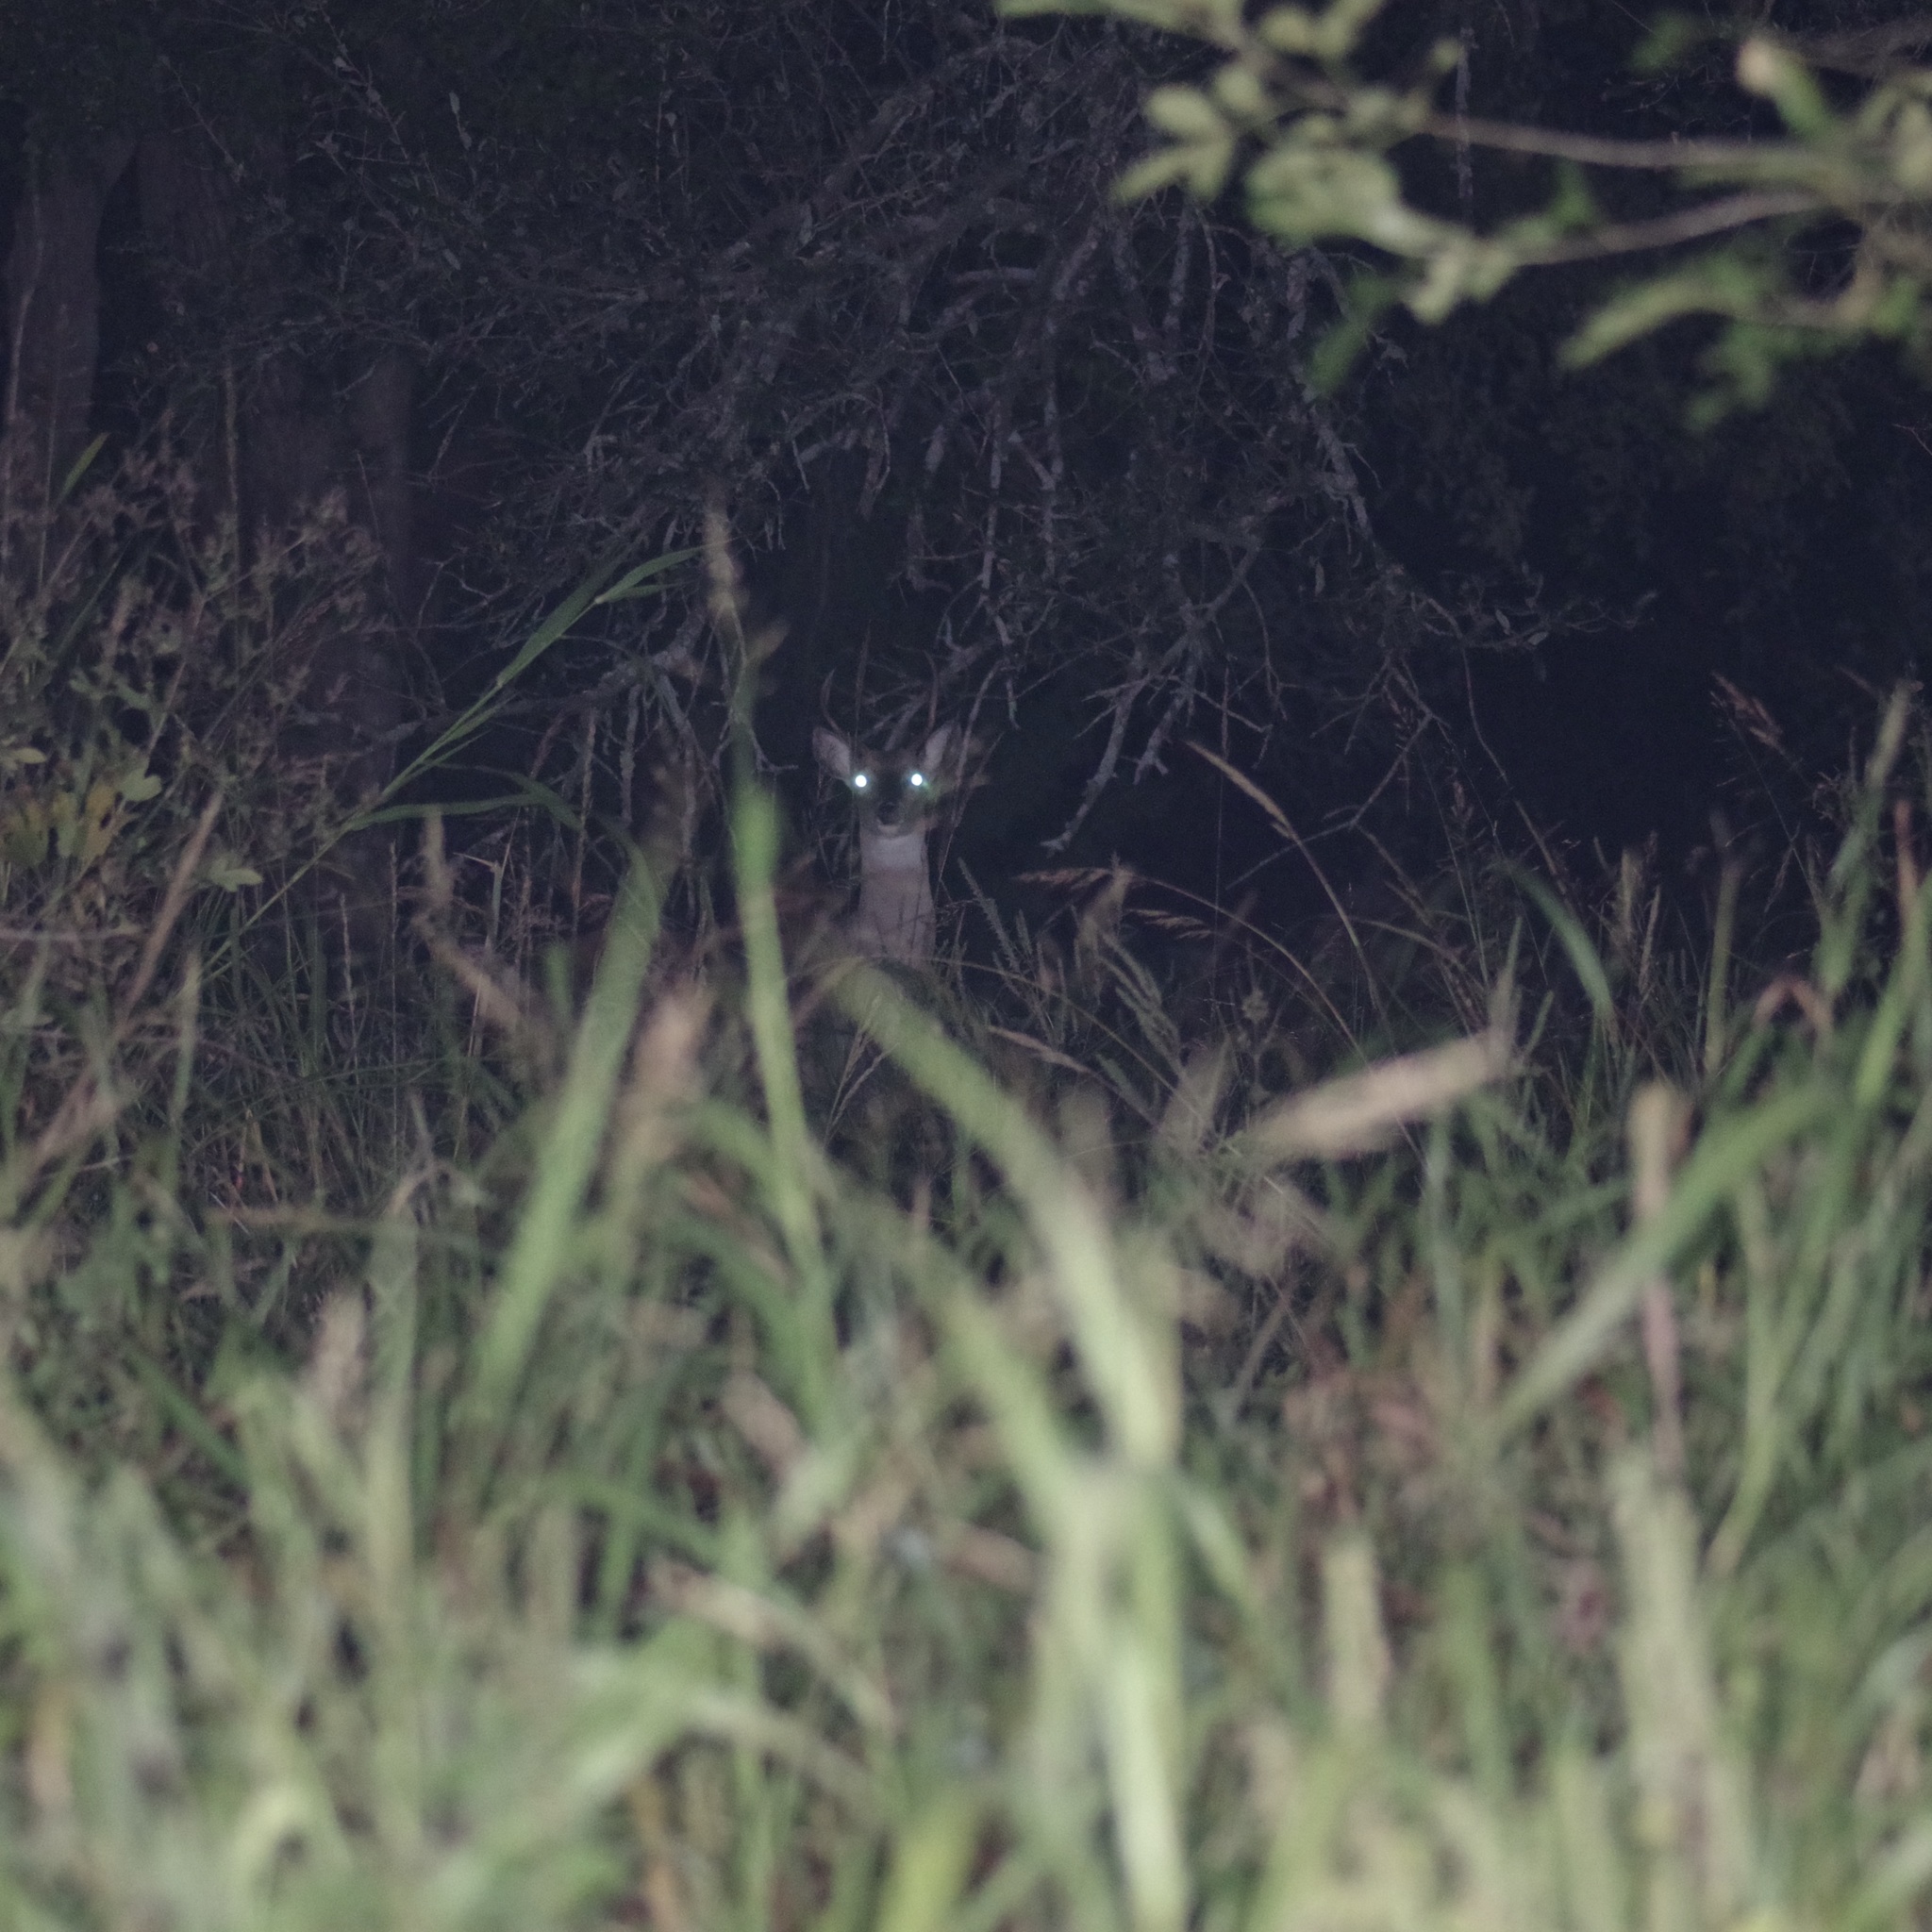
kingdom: Animalia
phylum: Chordata
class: Mammalia
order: Artiodactyla
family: Cervidae
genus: Odocoileus
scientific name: Odocoileus virginianus
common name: White-tailed deer
